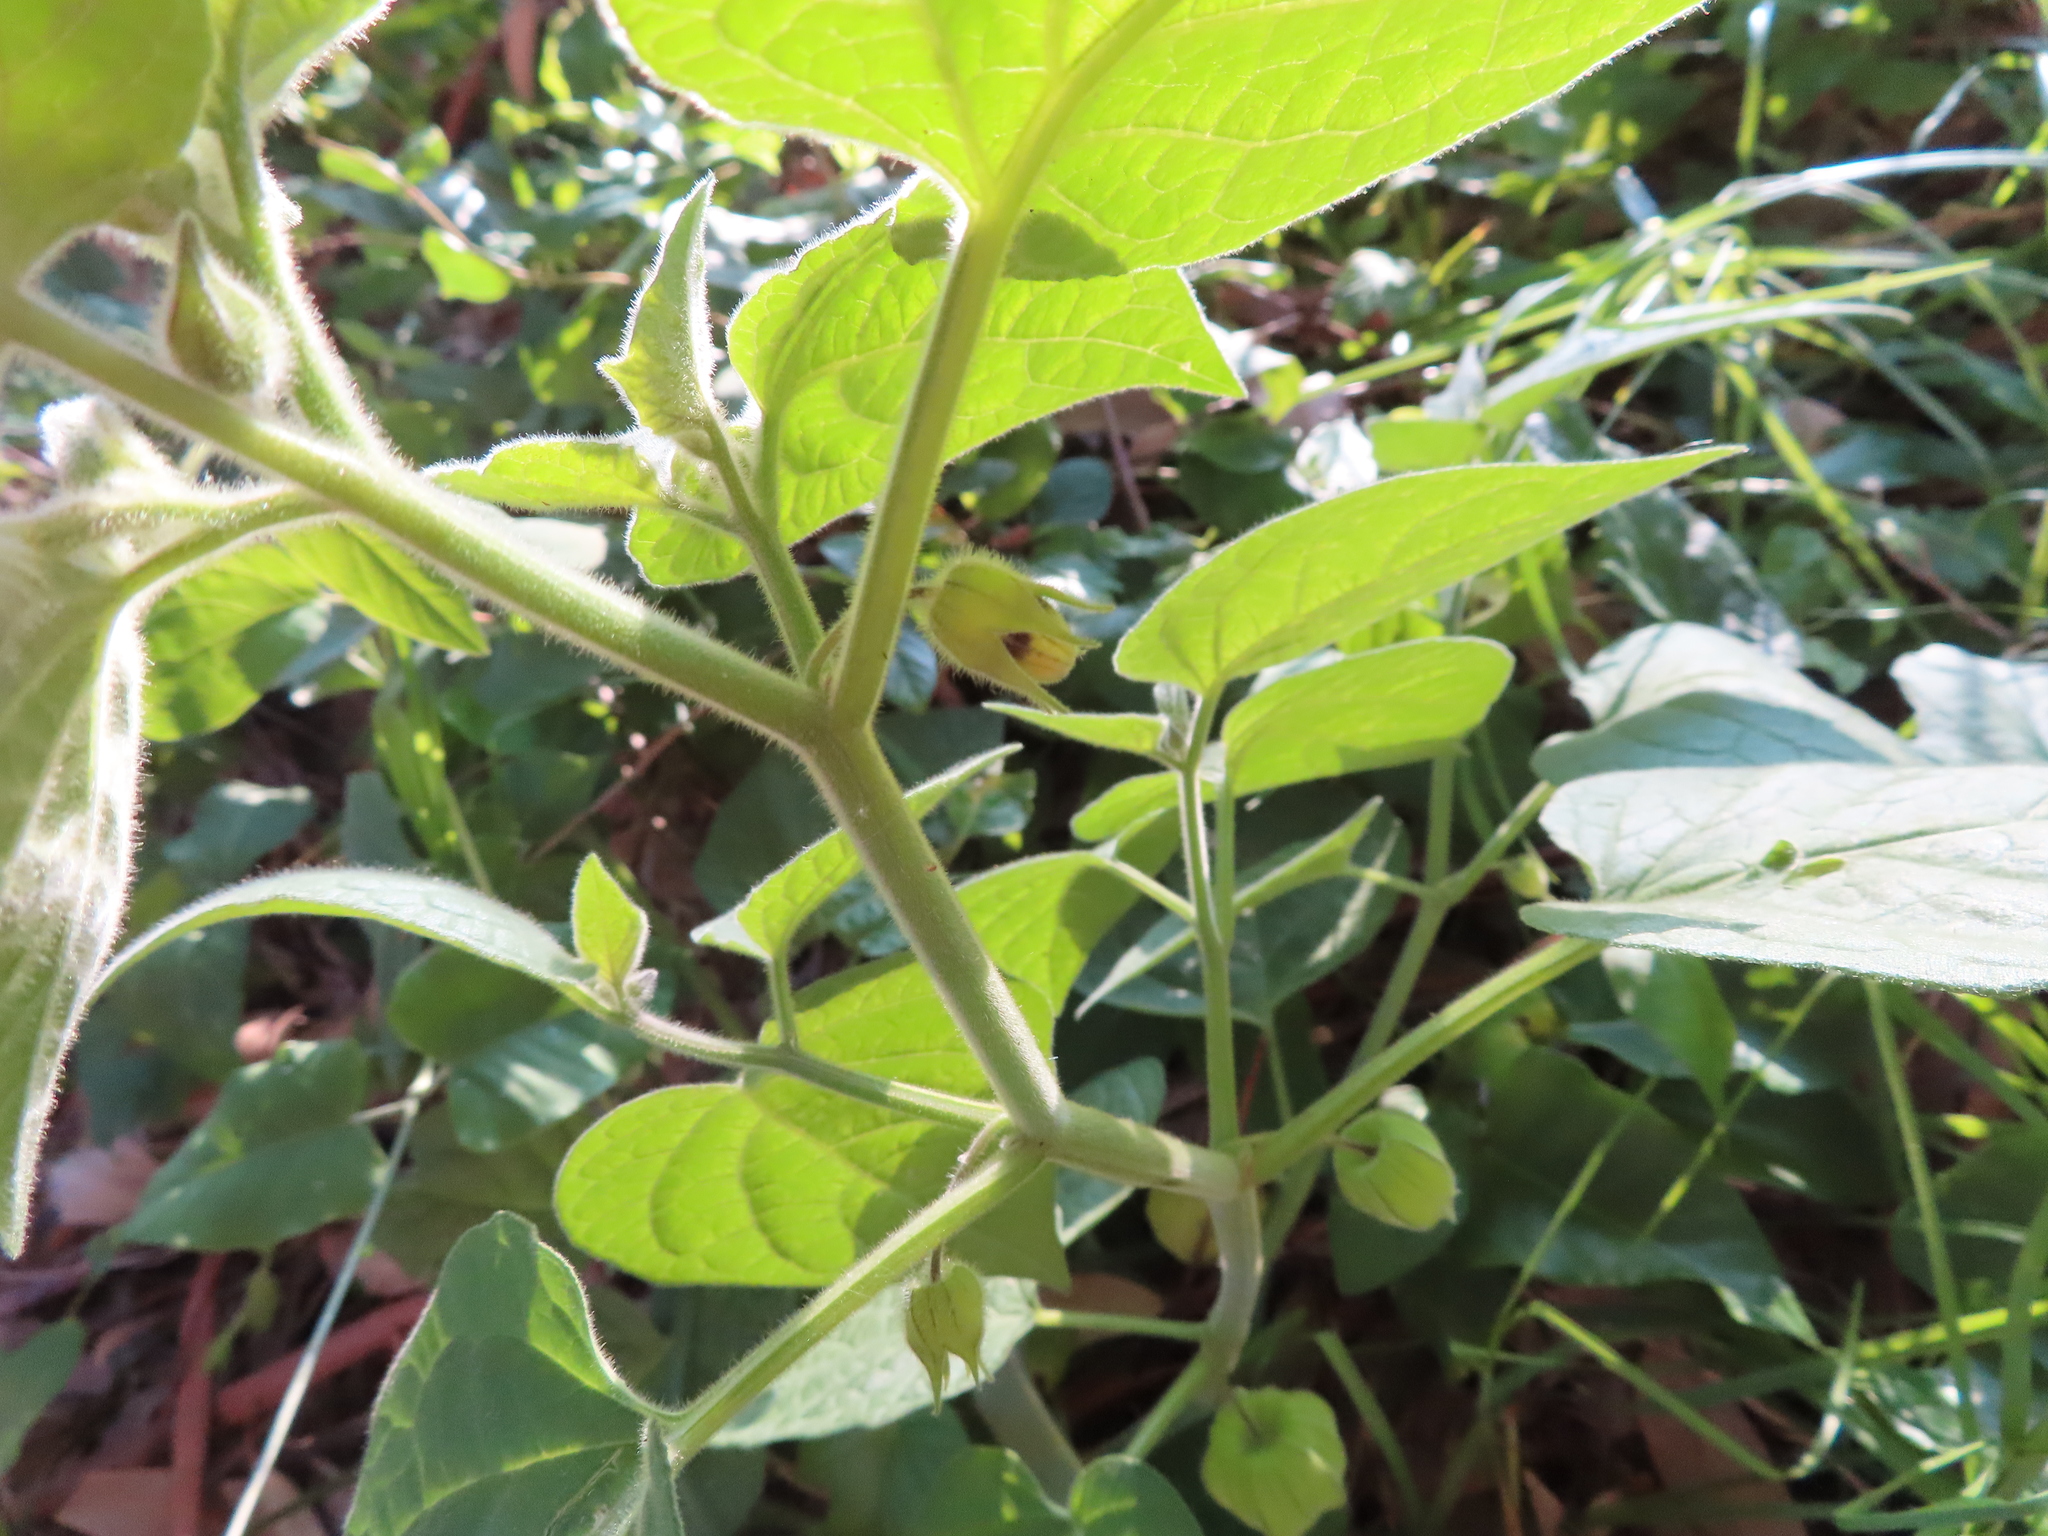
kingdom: Plantae
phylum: Tracheophyta
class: Magnoliopsida
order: Solanales
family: Solanaceae
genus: Physalis
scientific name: Physalis peruviana
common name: Cape-gooseberry
